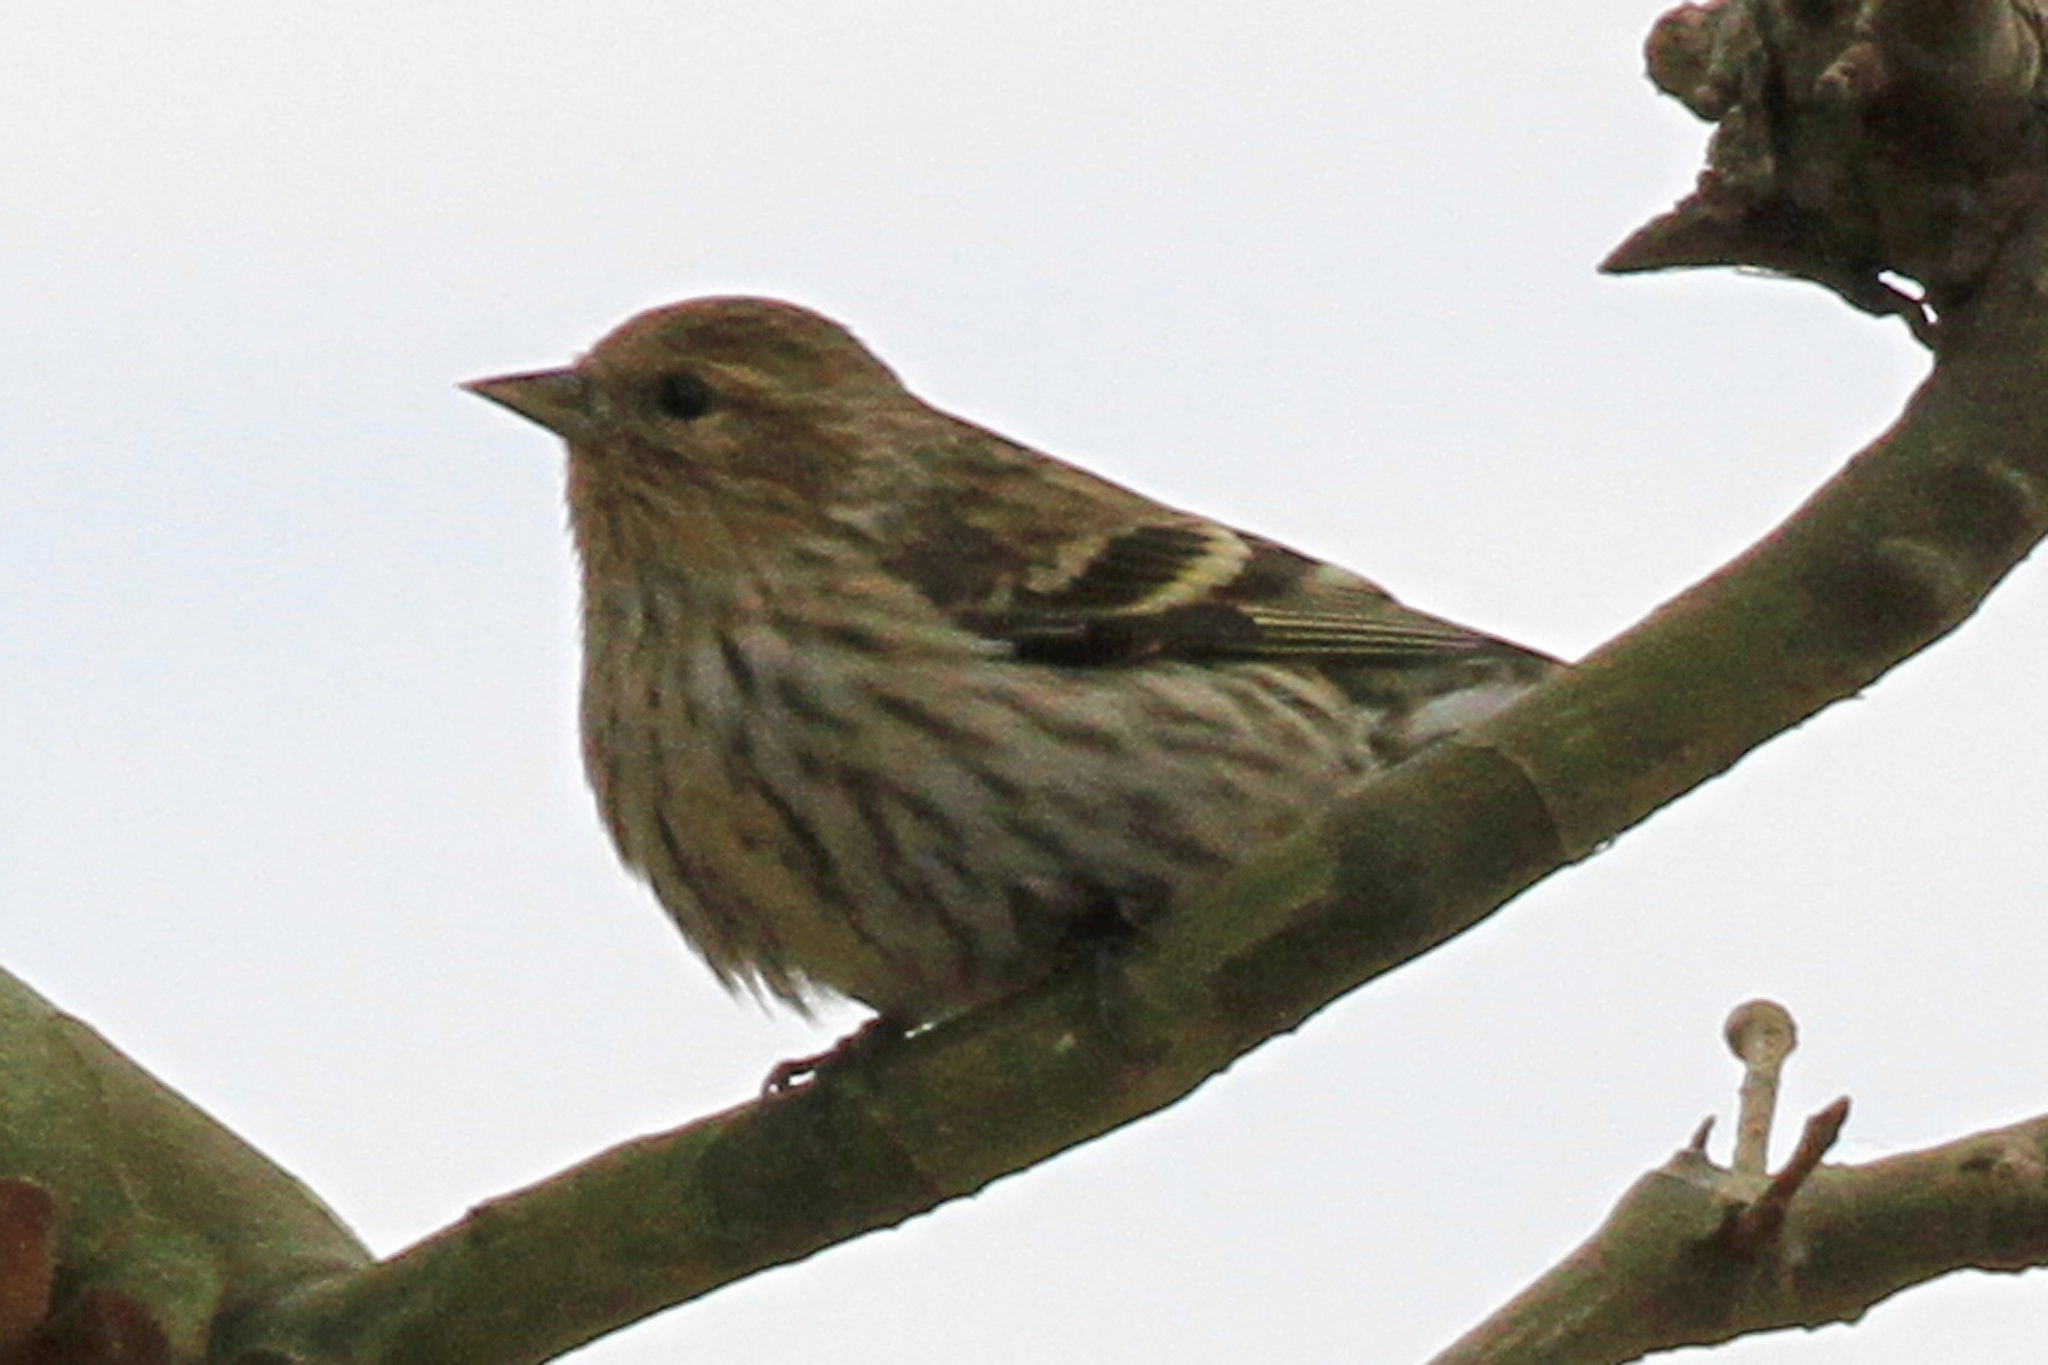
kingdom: Animalia
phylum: Chordata
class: Aves
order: Passeriformes
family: Fringillidae
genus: Spinus
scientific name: Spinus pinus
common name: Pine siskin
